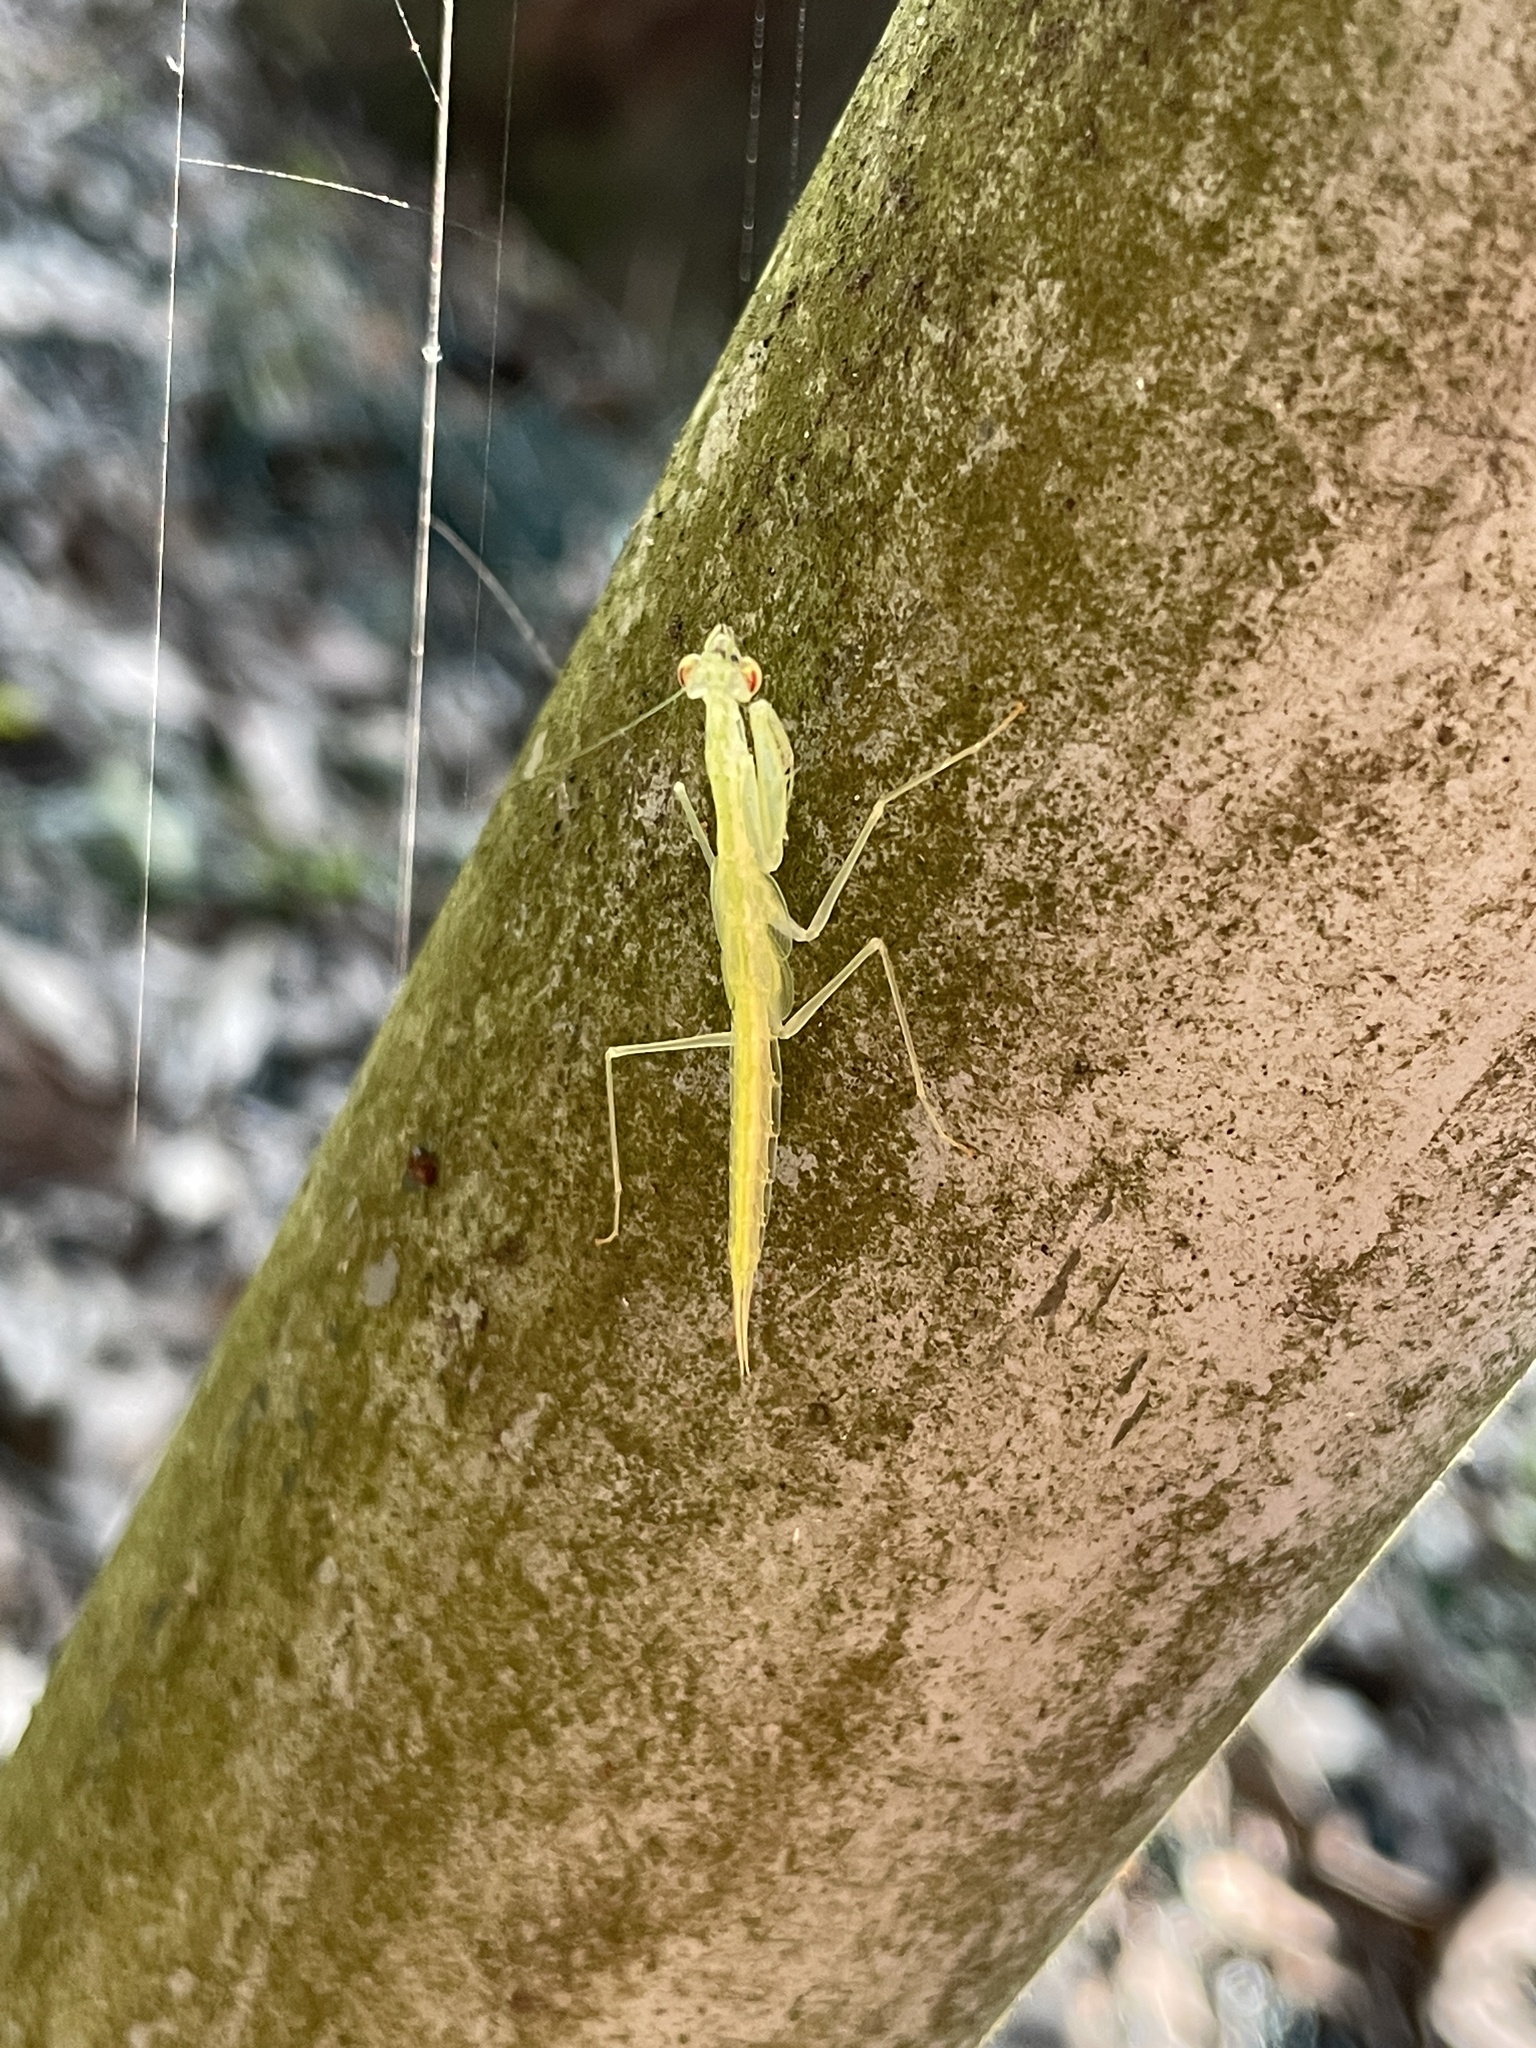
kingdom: Animalia
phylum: Arthropoda
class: Insecta
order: Mantodea
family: Nanomantidae
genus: Sinomantis
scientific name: Sinomantis denticulata
